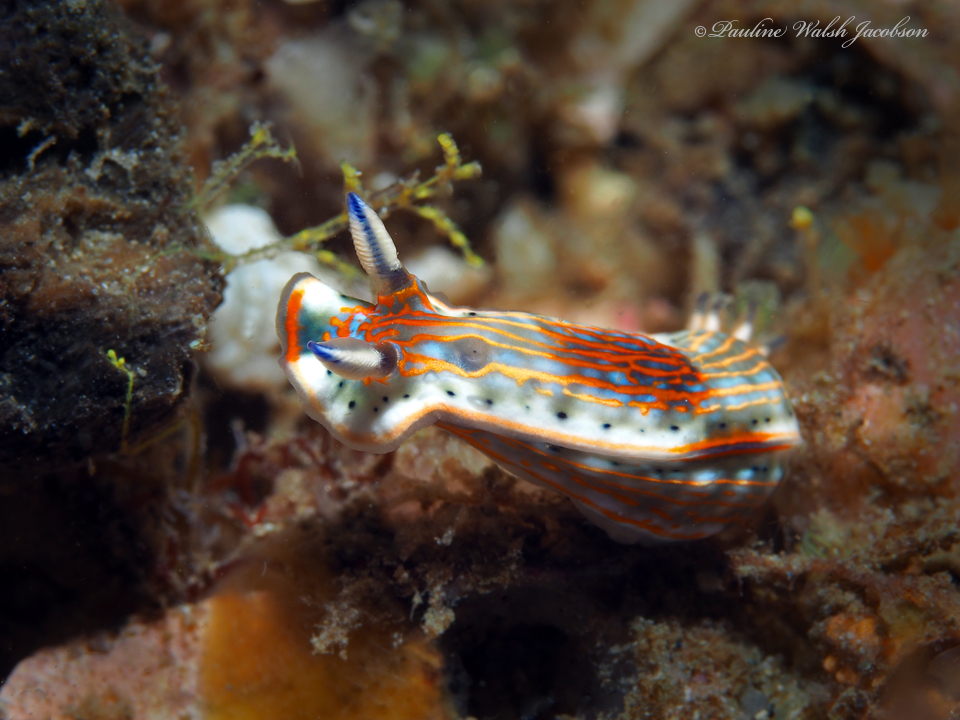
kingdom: Animalia
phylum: Mollusca
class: Gastropoda
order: Nudibranchia
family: Chromodorididae
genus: Felimare
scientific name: Felimare fregona
